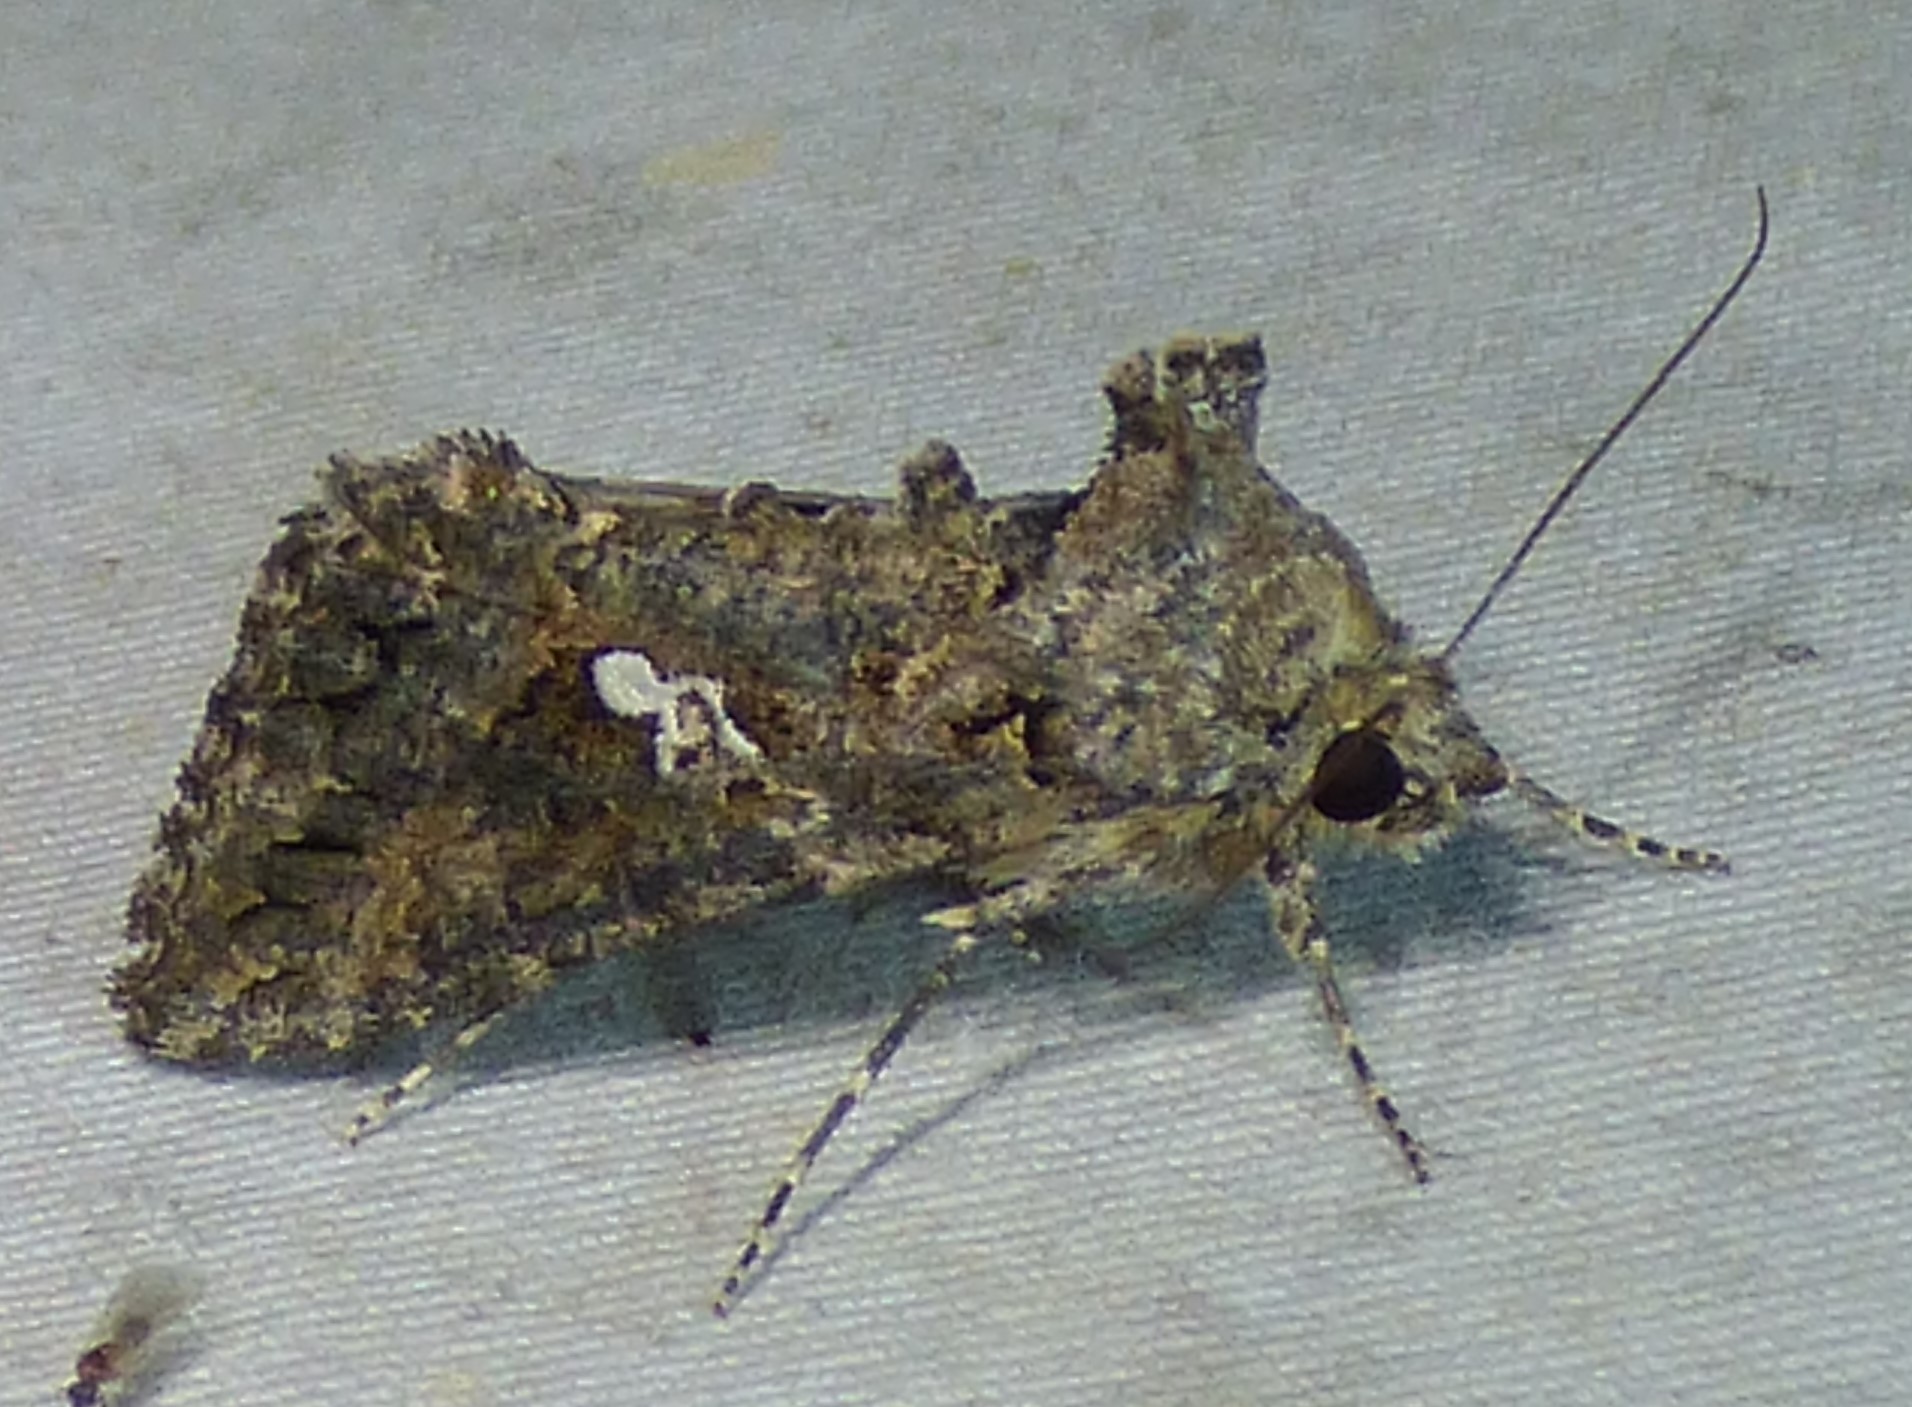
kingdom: Animalia
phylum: Arthropoda
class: Insecta
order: Lepidoptera
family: Noctuidae
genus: Trichoplusia
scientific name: Trichoplusia ni
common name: Ni moth
